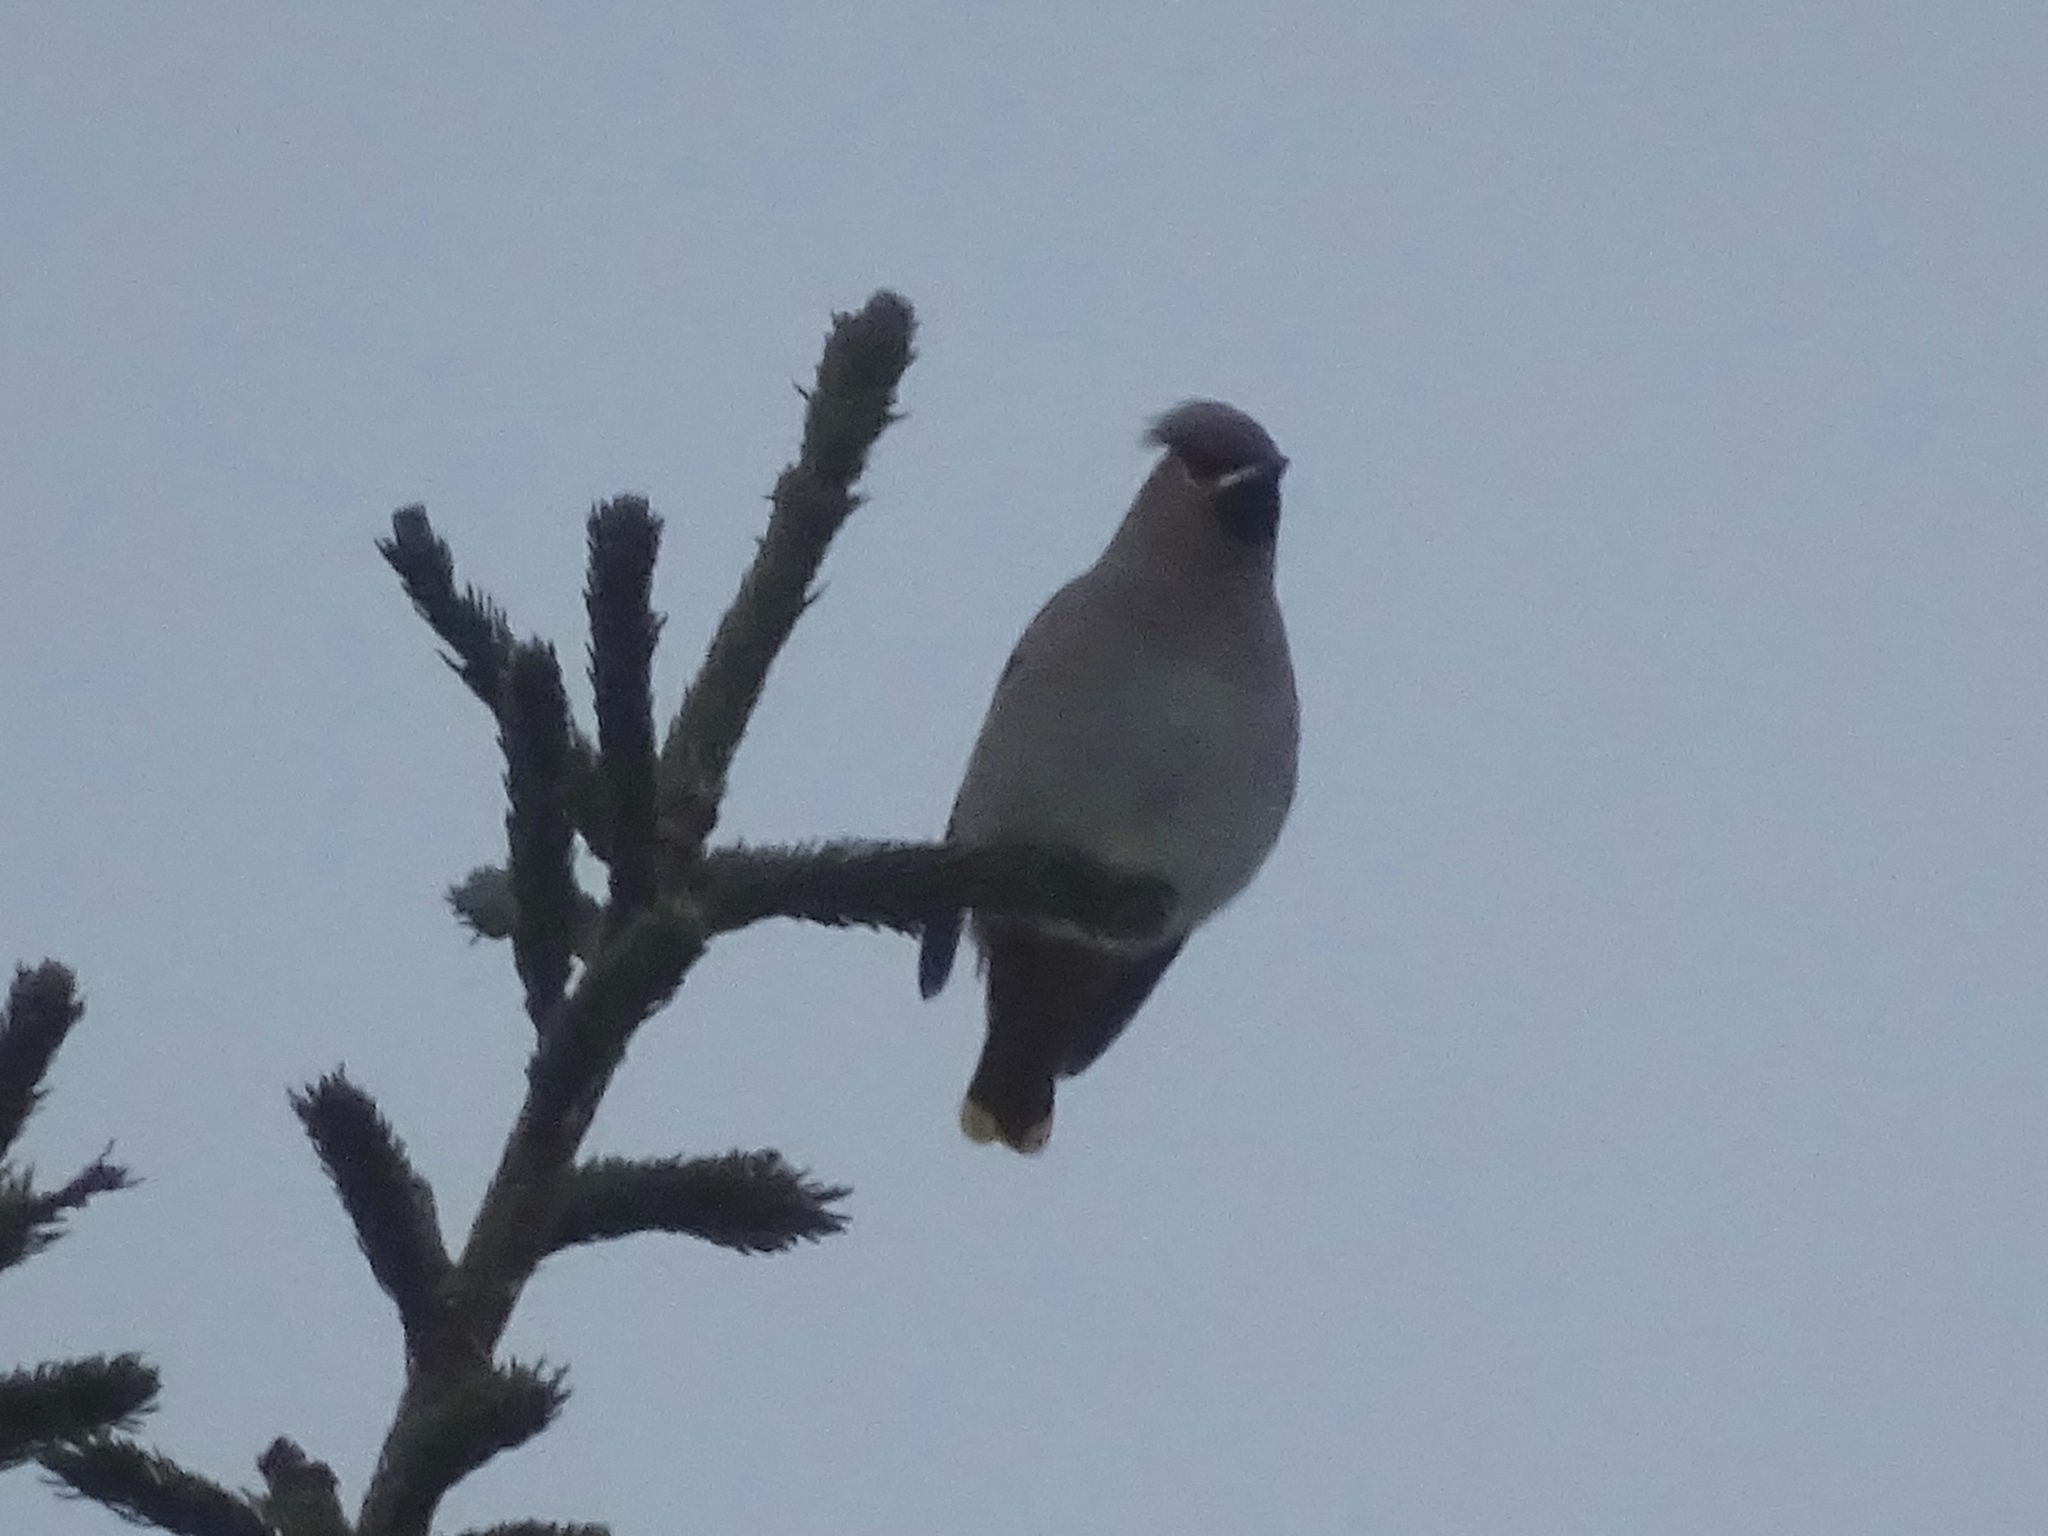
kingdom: Animalia
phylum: Chordata
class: Aves
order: Passeriformes
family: Bombycillidae
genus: Bombycilla
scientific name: Bombycilla garrulus
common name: Bohemian waxwing
